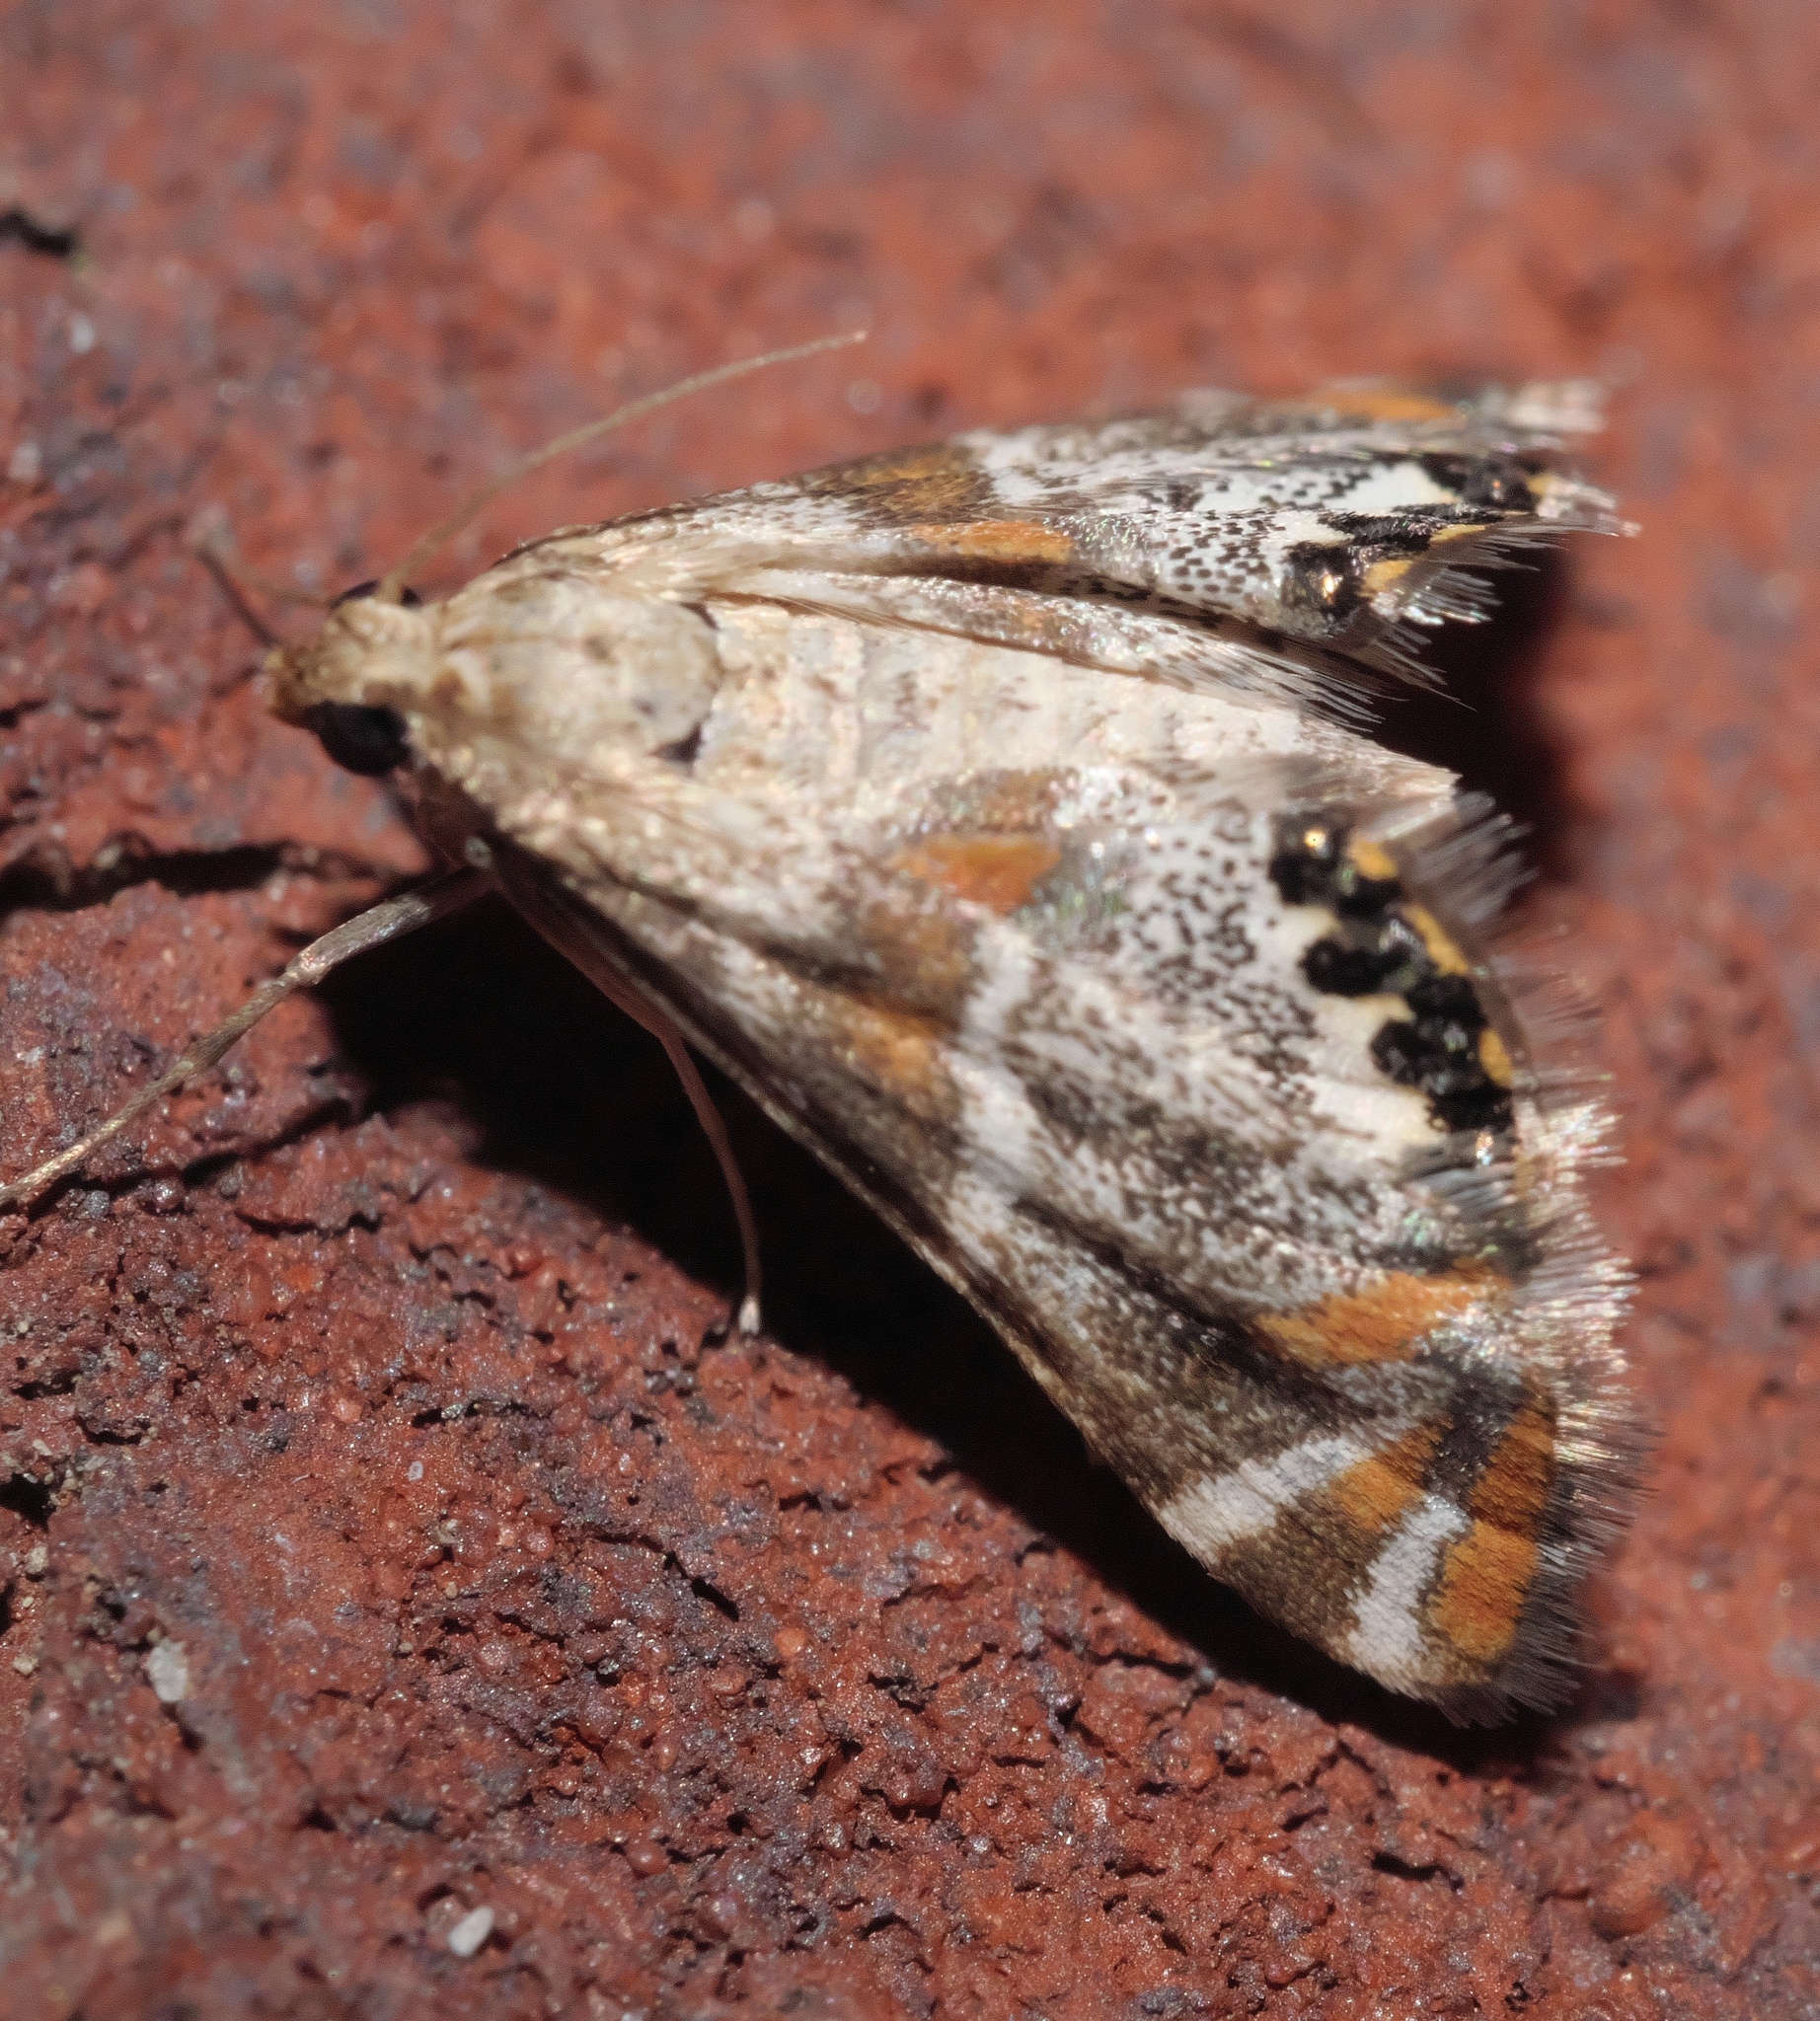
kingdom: Animalia
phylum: Arthropoda
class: Insecta
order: Lepidoptera
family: Crambidae
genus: Petrophila
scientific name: Petrophila jaliscalis
